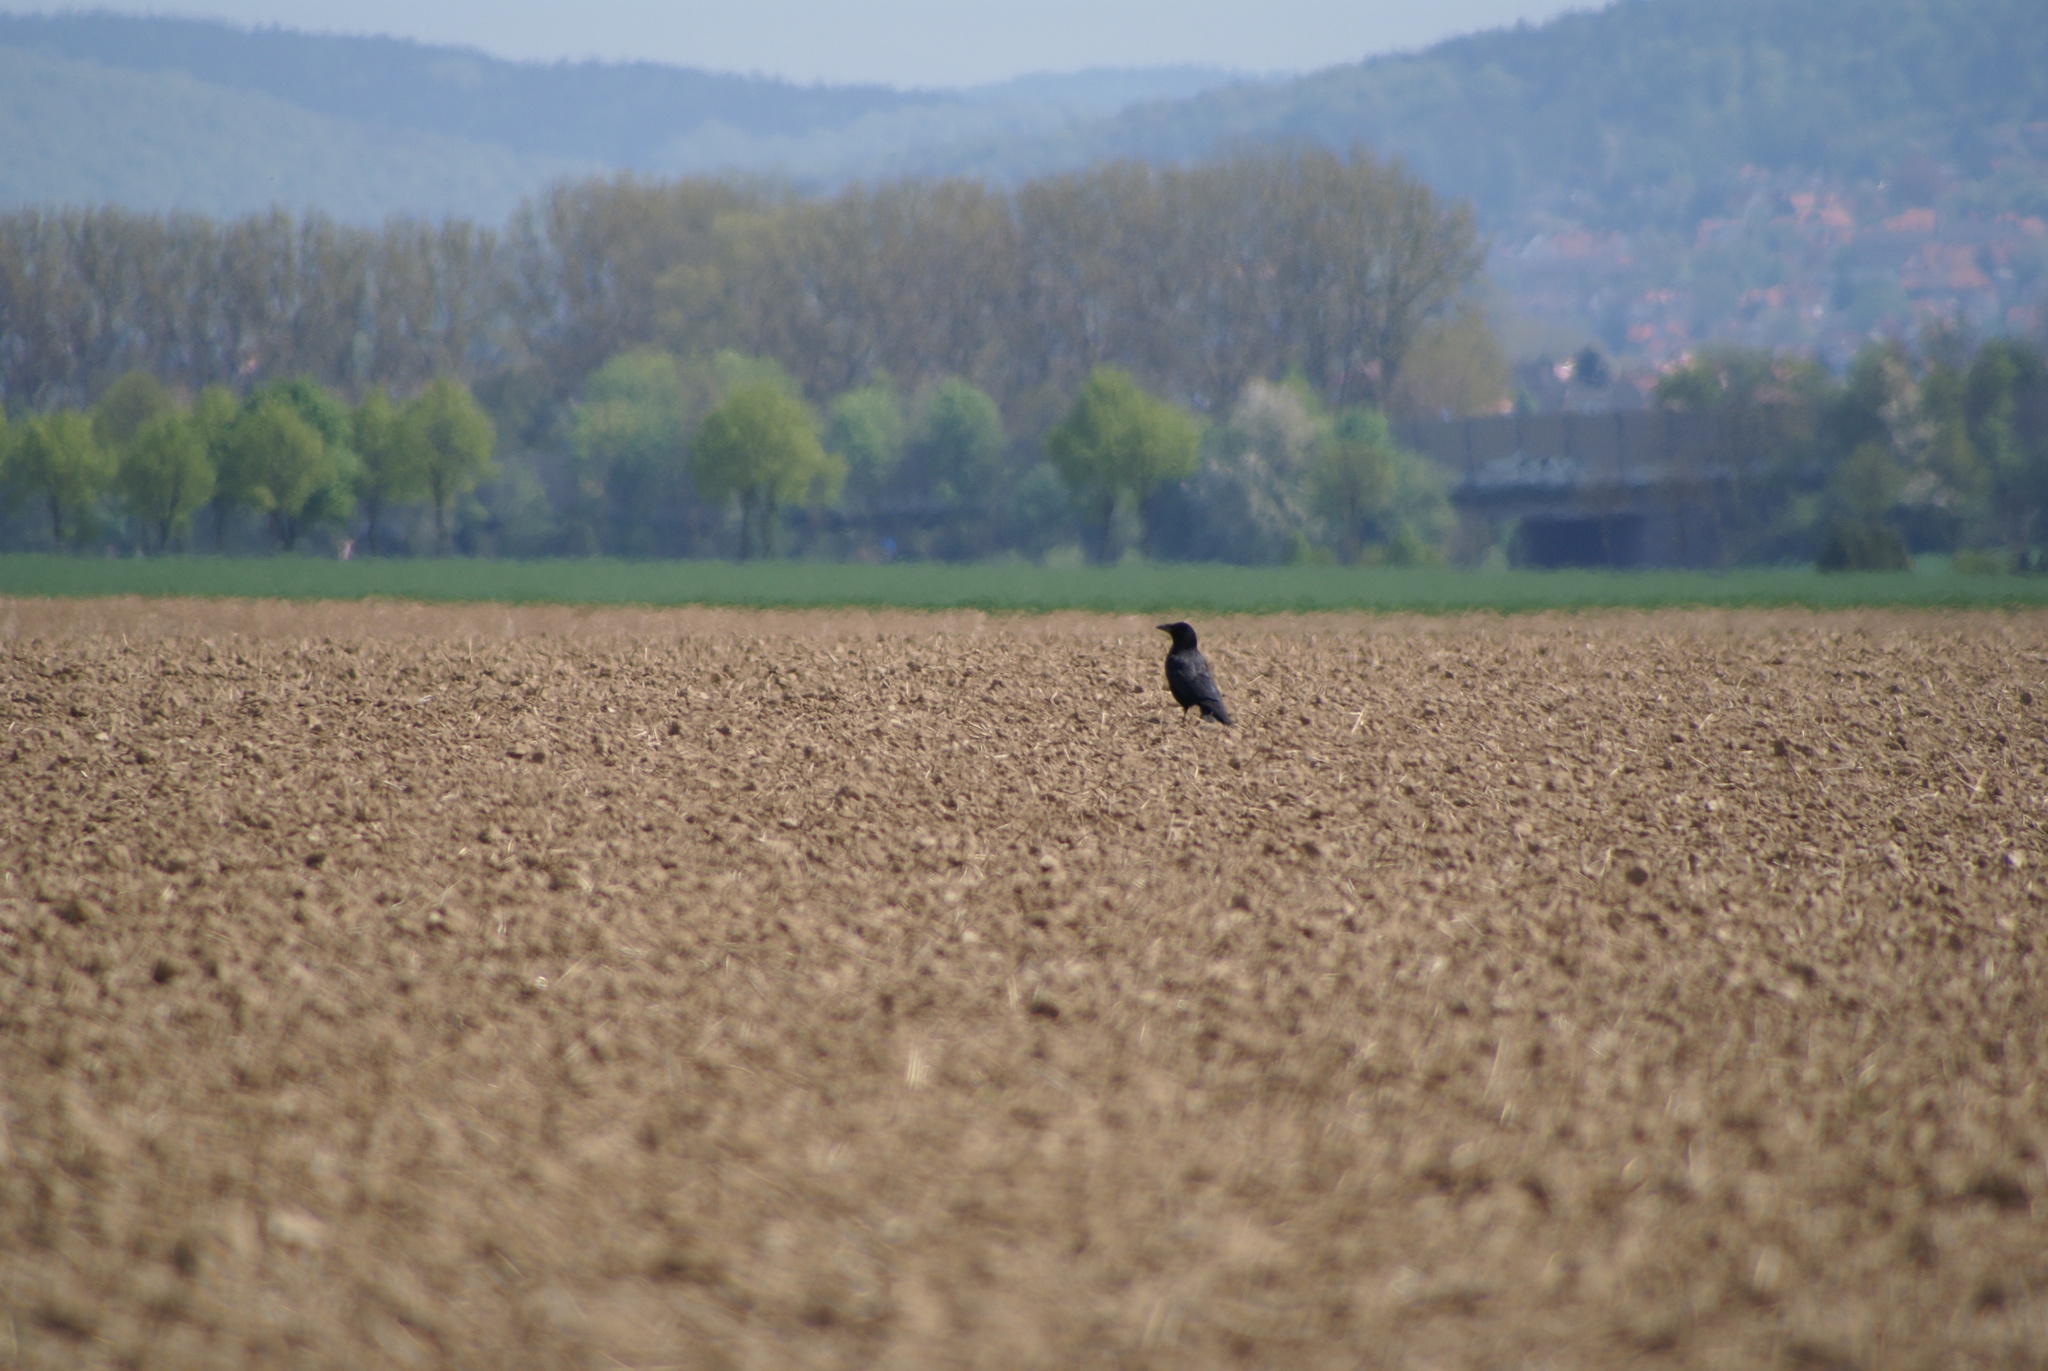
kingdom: Animalia
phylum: Chordata
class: Aves
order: Passeriformes
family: Corvidae
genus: Corvus
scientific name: Corvus corone
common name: Carrion crow
